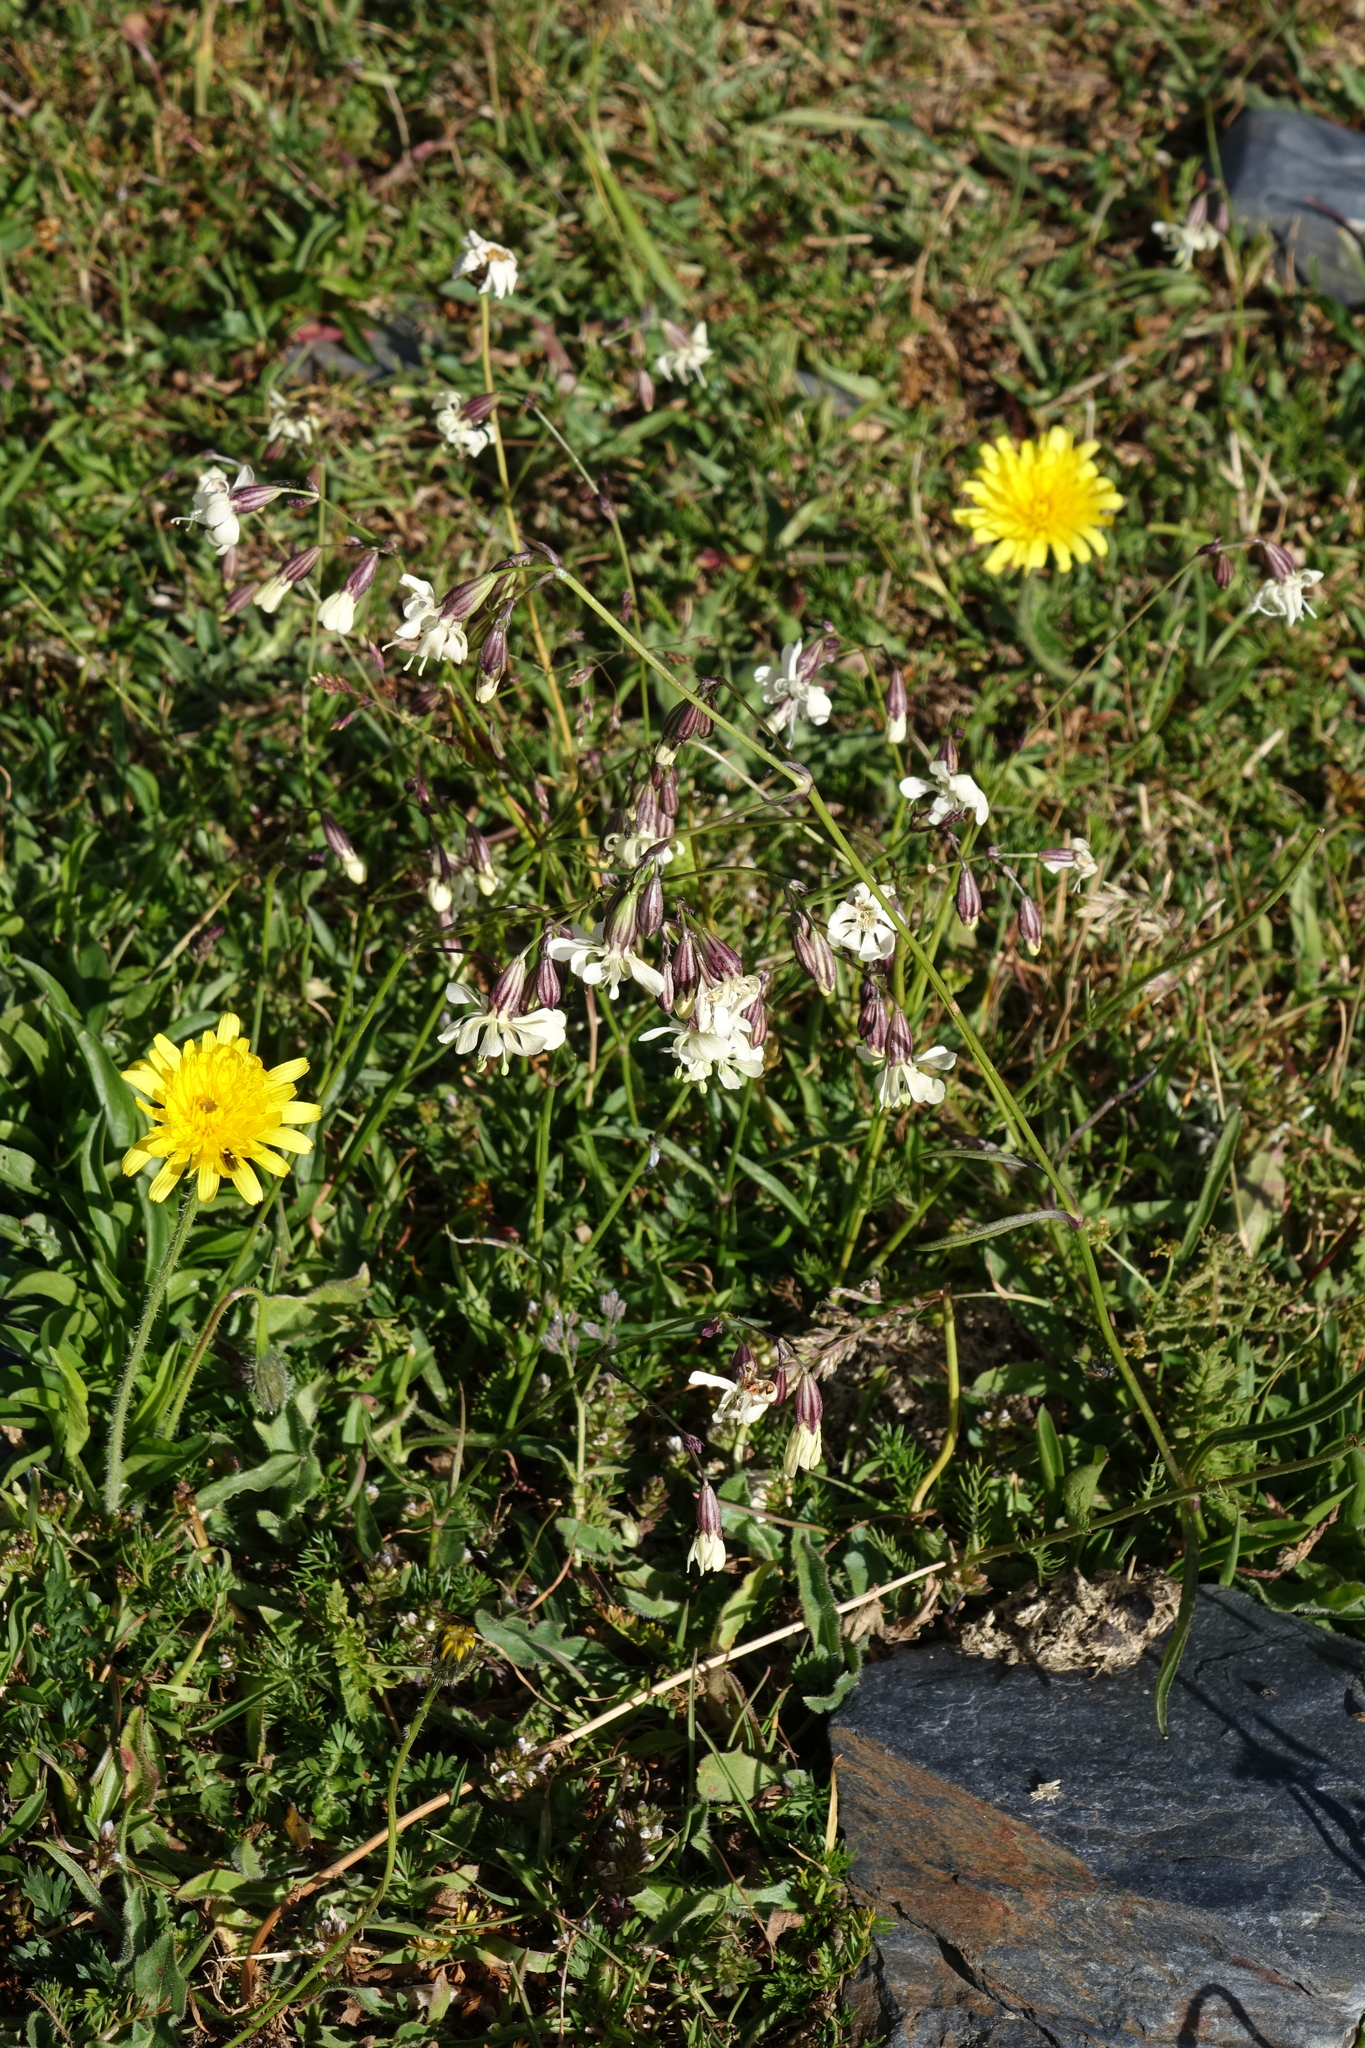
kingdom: Plantae
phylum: Tracheophyta
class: Magnoliopsida
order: Caryophyllales
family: Caryophyllaceae
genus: Silene
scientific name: Silene saxatilis
